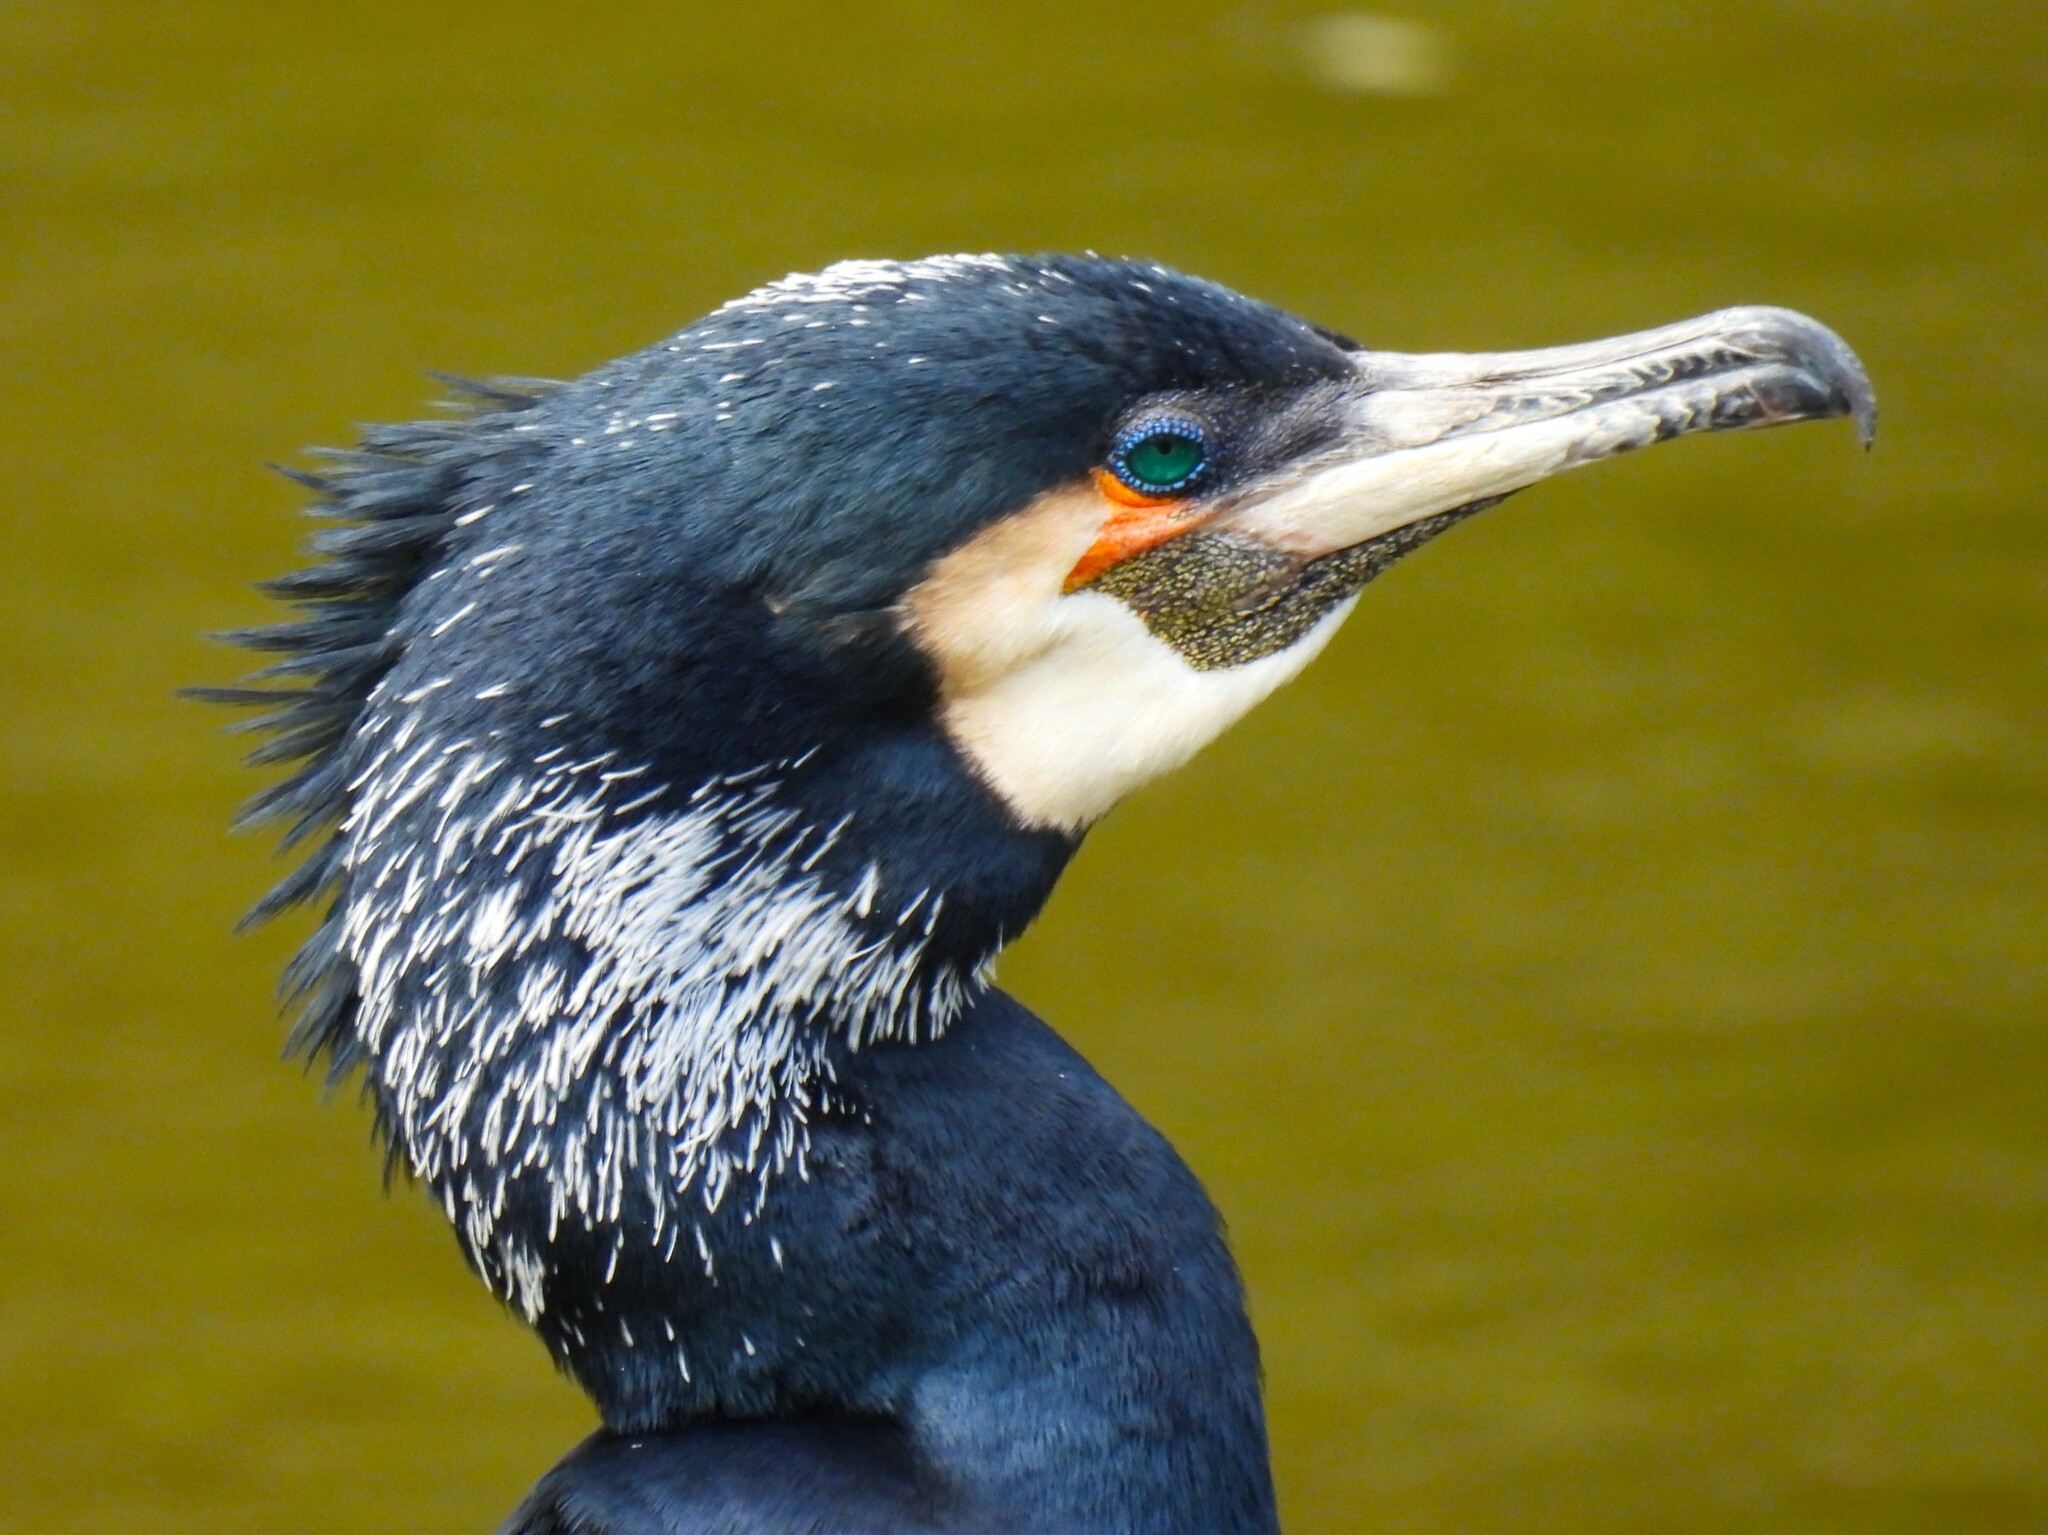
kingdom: Animalia
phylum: Chordata
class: Aves
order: Suliformes
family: Phalacrocoracidae
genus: Phalacrocorax
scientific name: Phalacrocorax carbo
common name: Great cormorant
